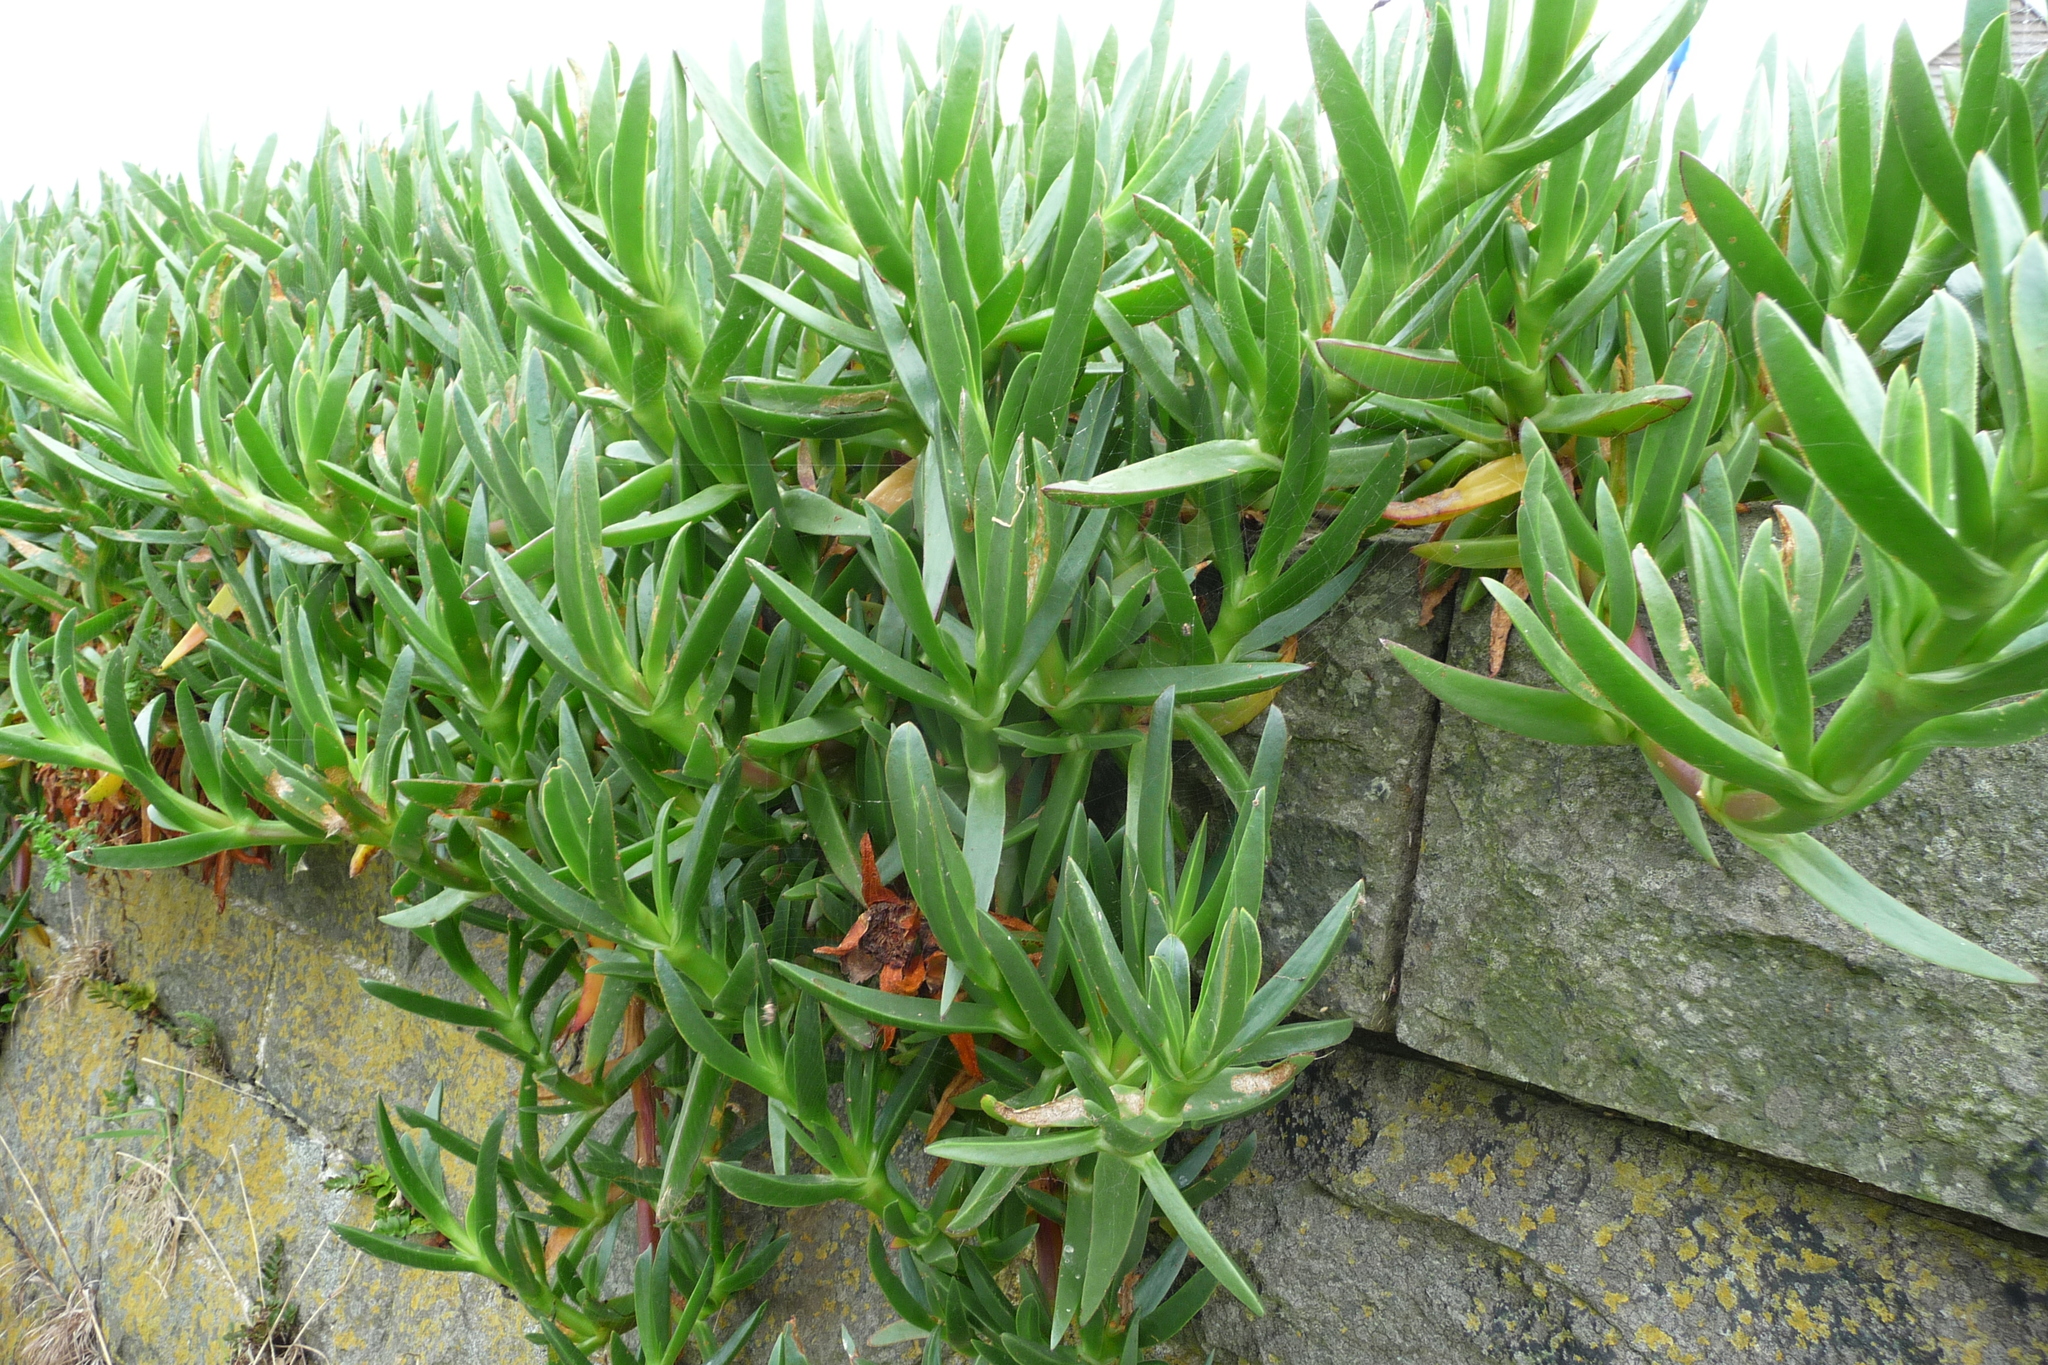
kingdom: Plantae
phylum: Tracheophyta
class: Magnoliopsida
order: Caryophyllales
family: Aizoaceae
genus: Carpobrotus
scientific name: Carpobrotus edulis
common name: Hottentot-fig
